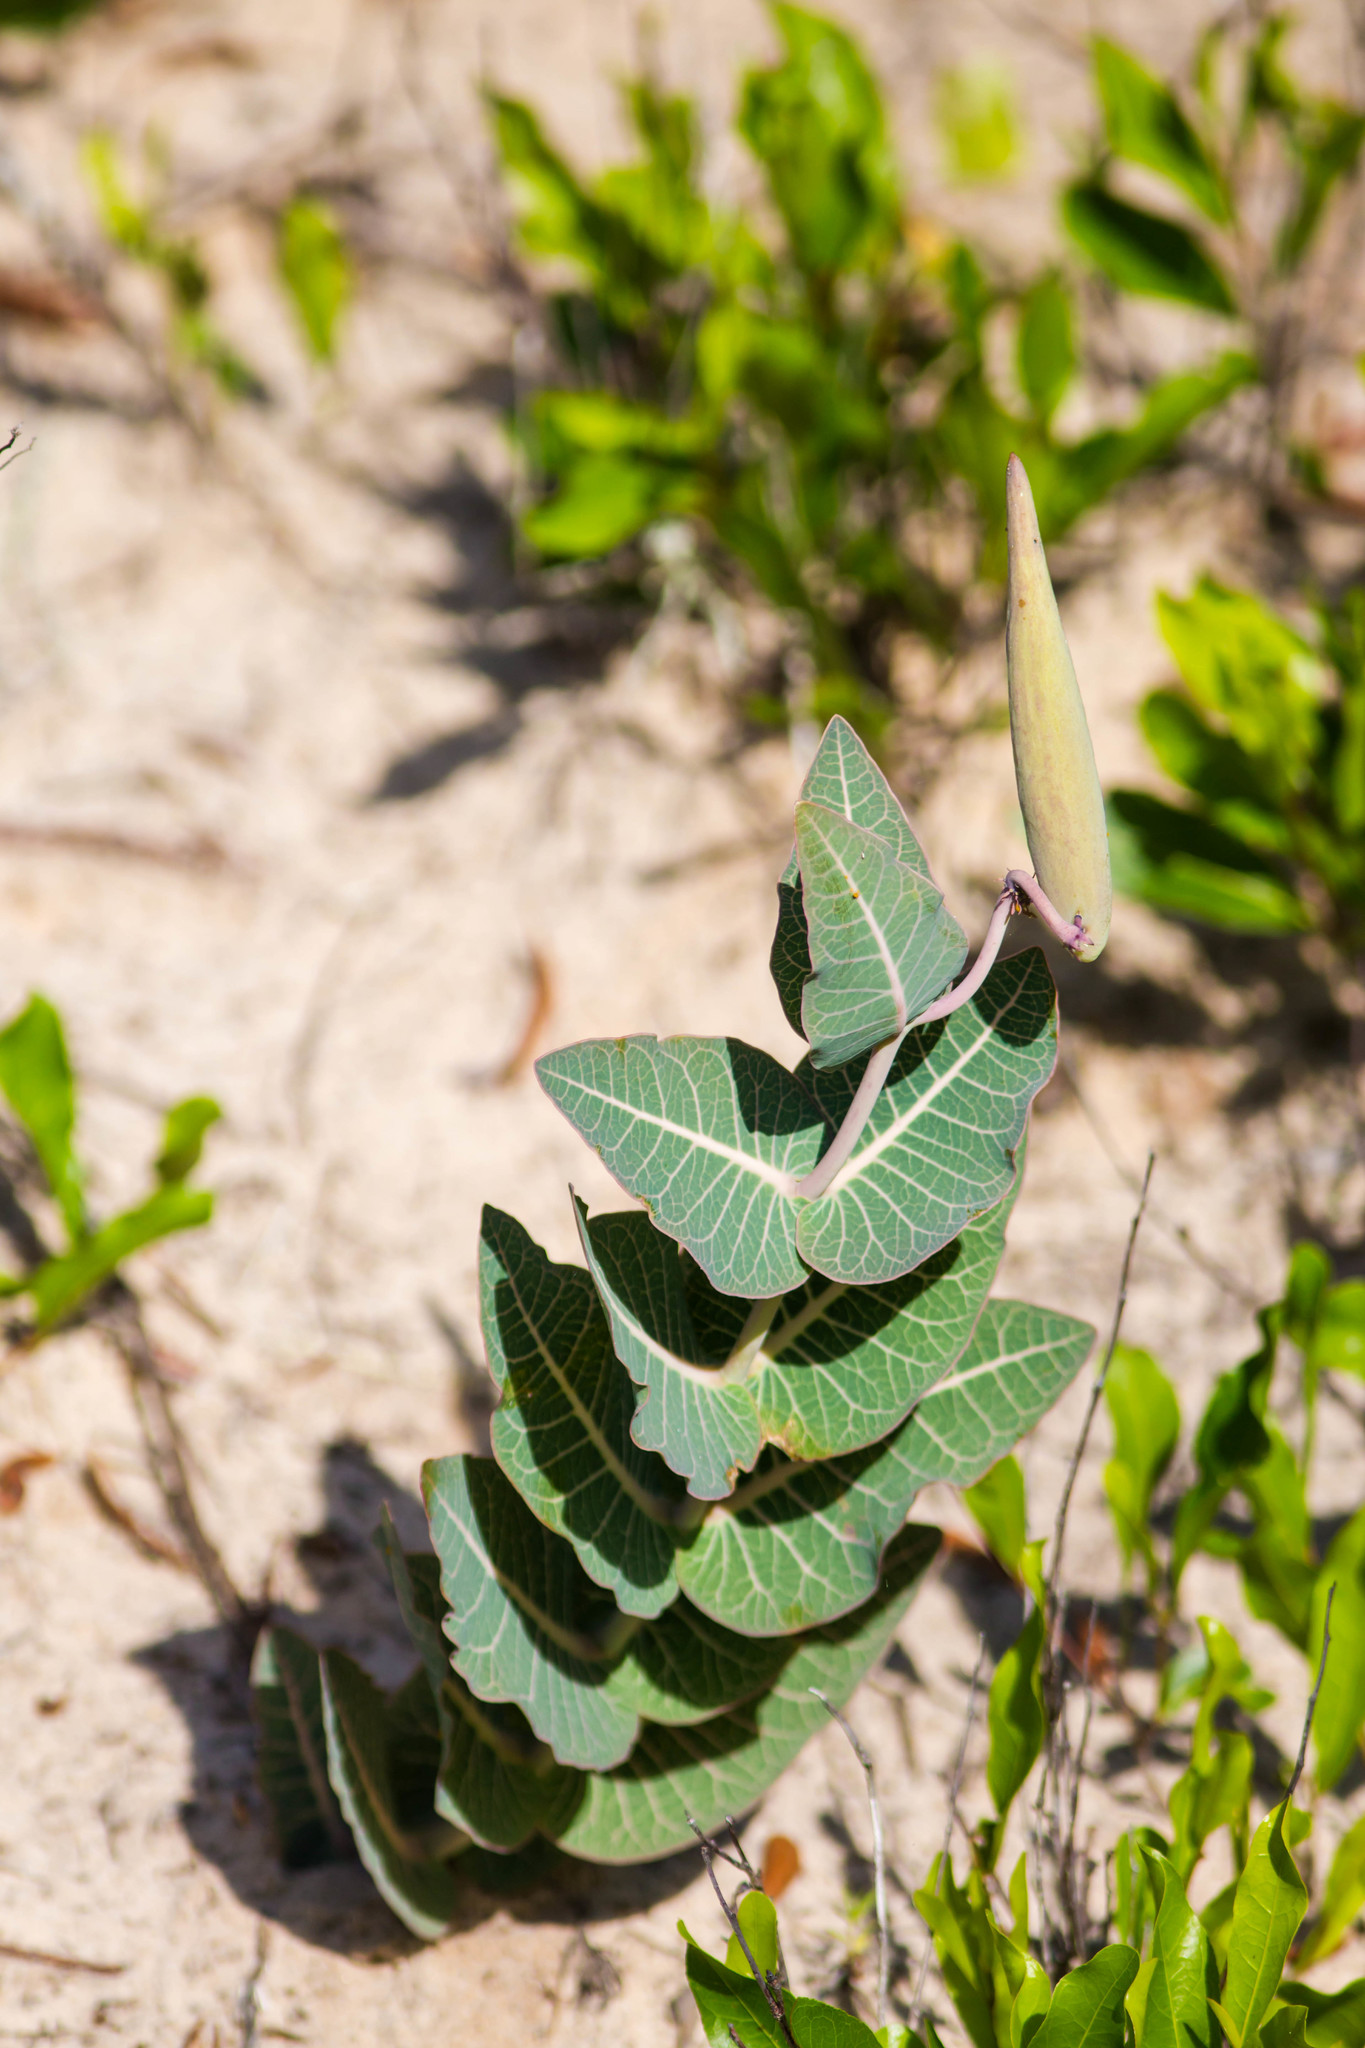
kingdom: Plantae
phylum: Tracheophyta
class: Magnoliopsida
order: Gentianales
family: Apocynaceae
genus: Asclepias
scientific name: Asclepias humistrata
